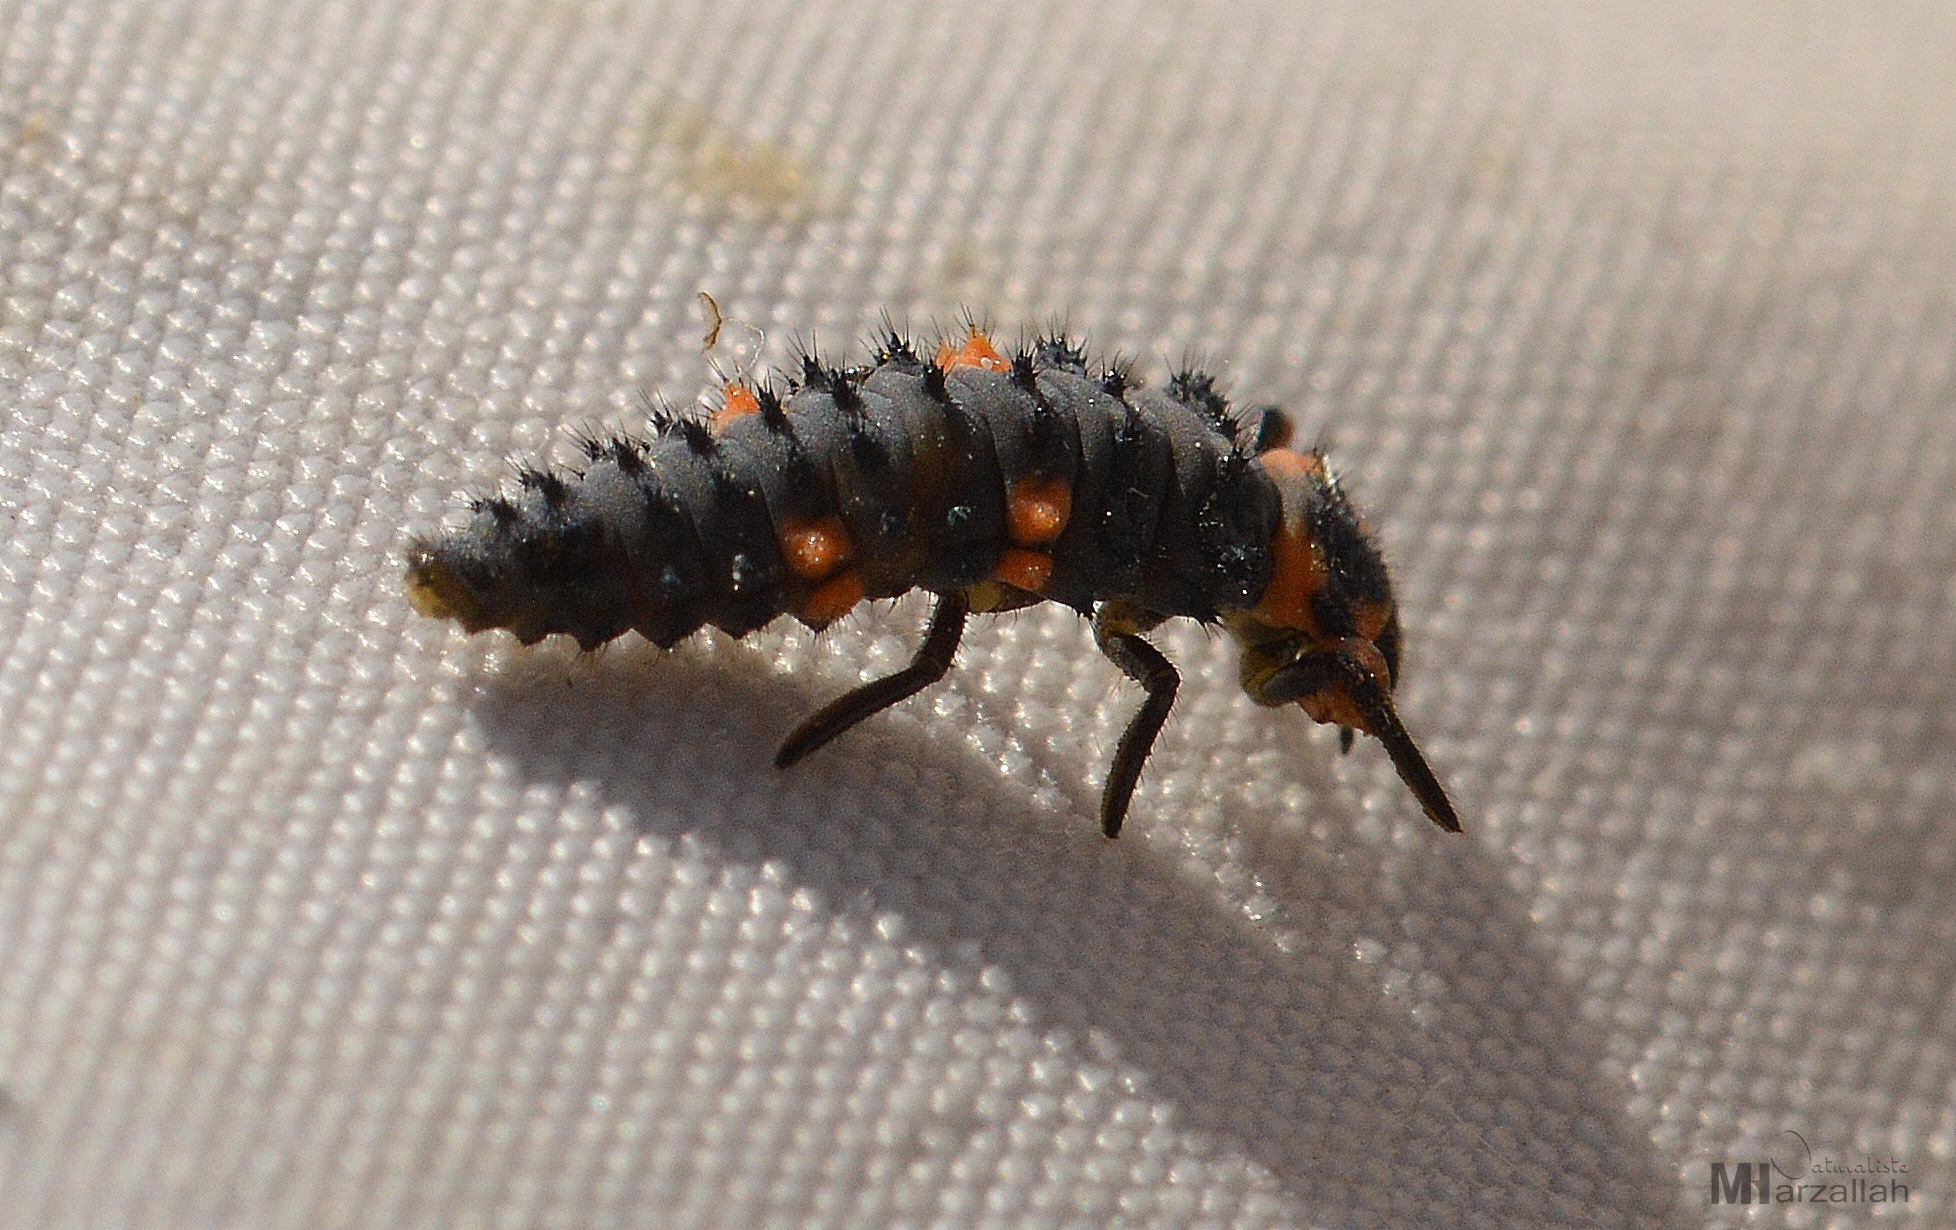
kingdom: Animalia
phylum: Arthropoda
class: Insecta
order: Coleoptera
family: Coccinellidae
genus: Coccinella
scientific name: Coccinella algerica
